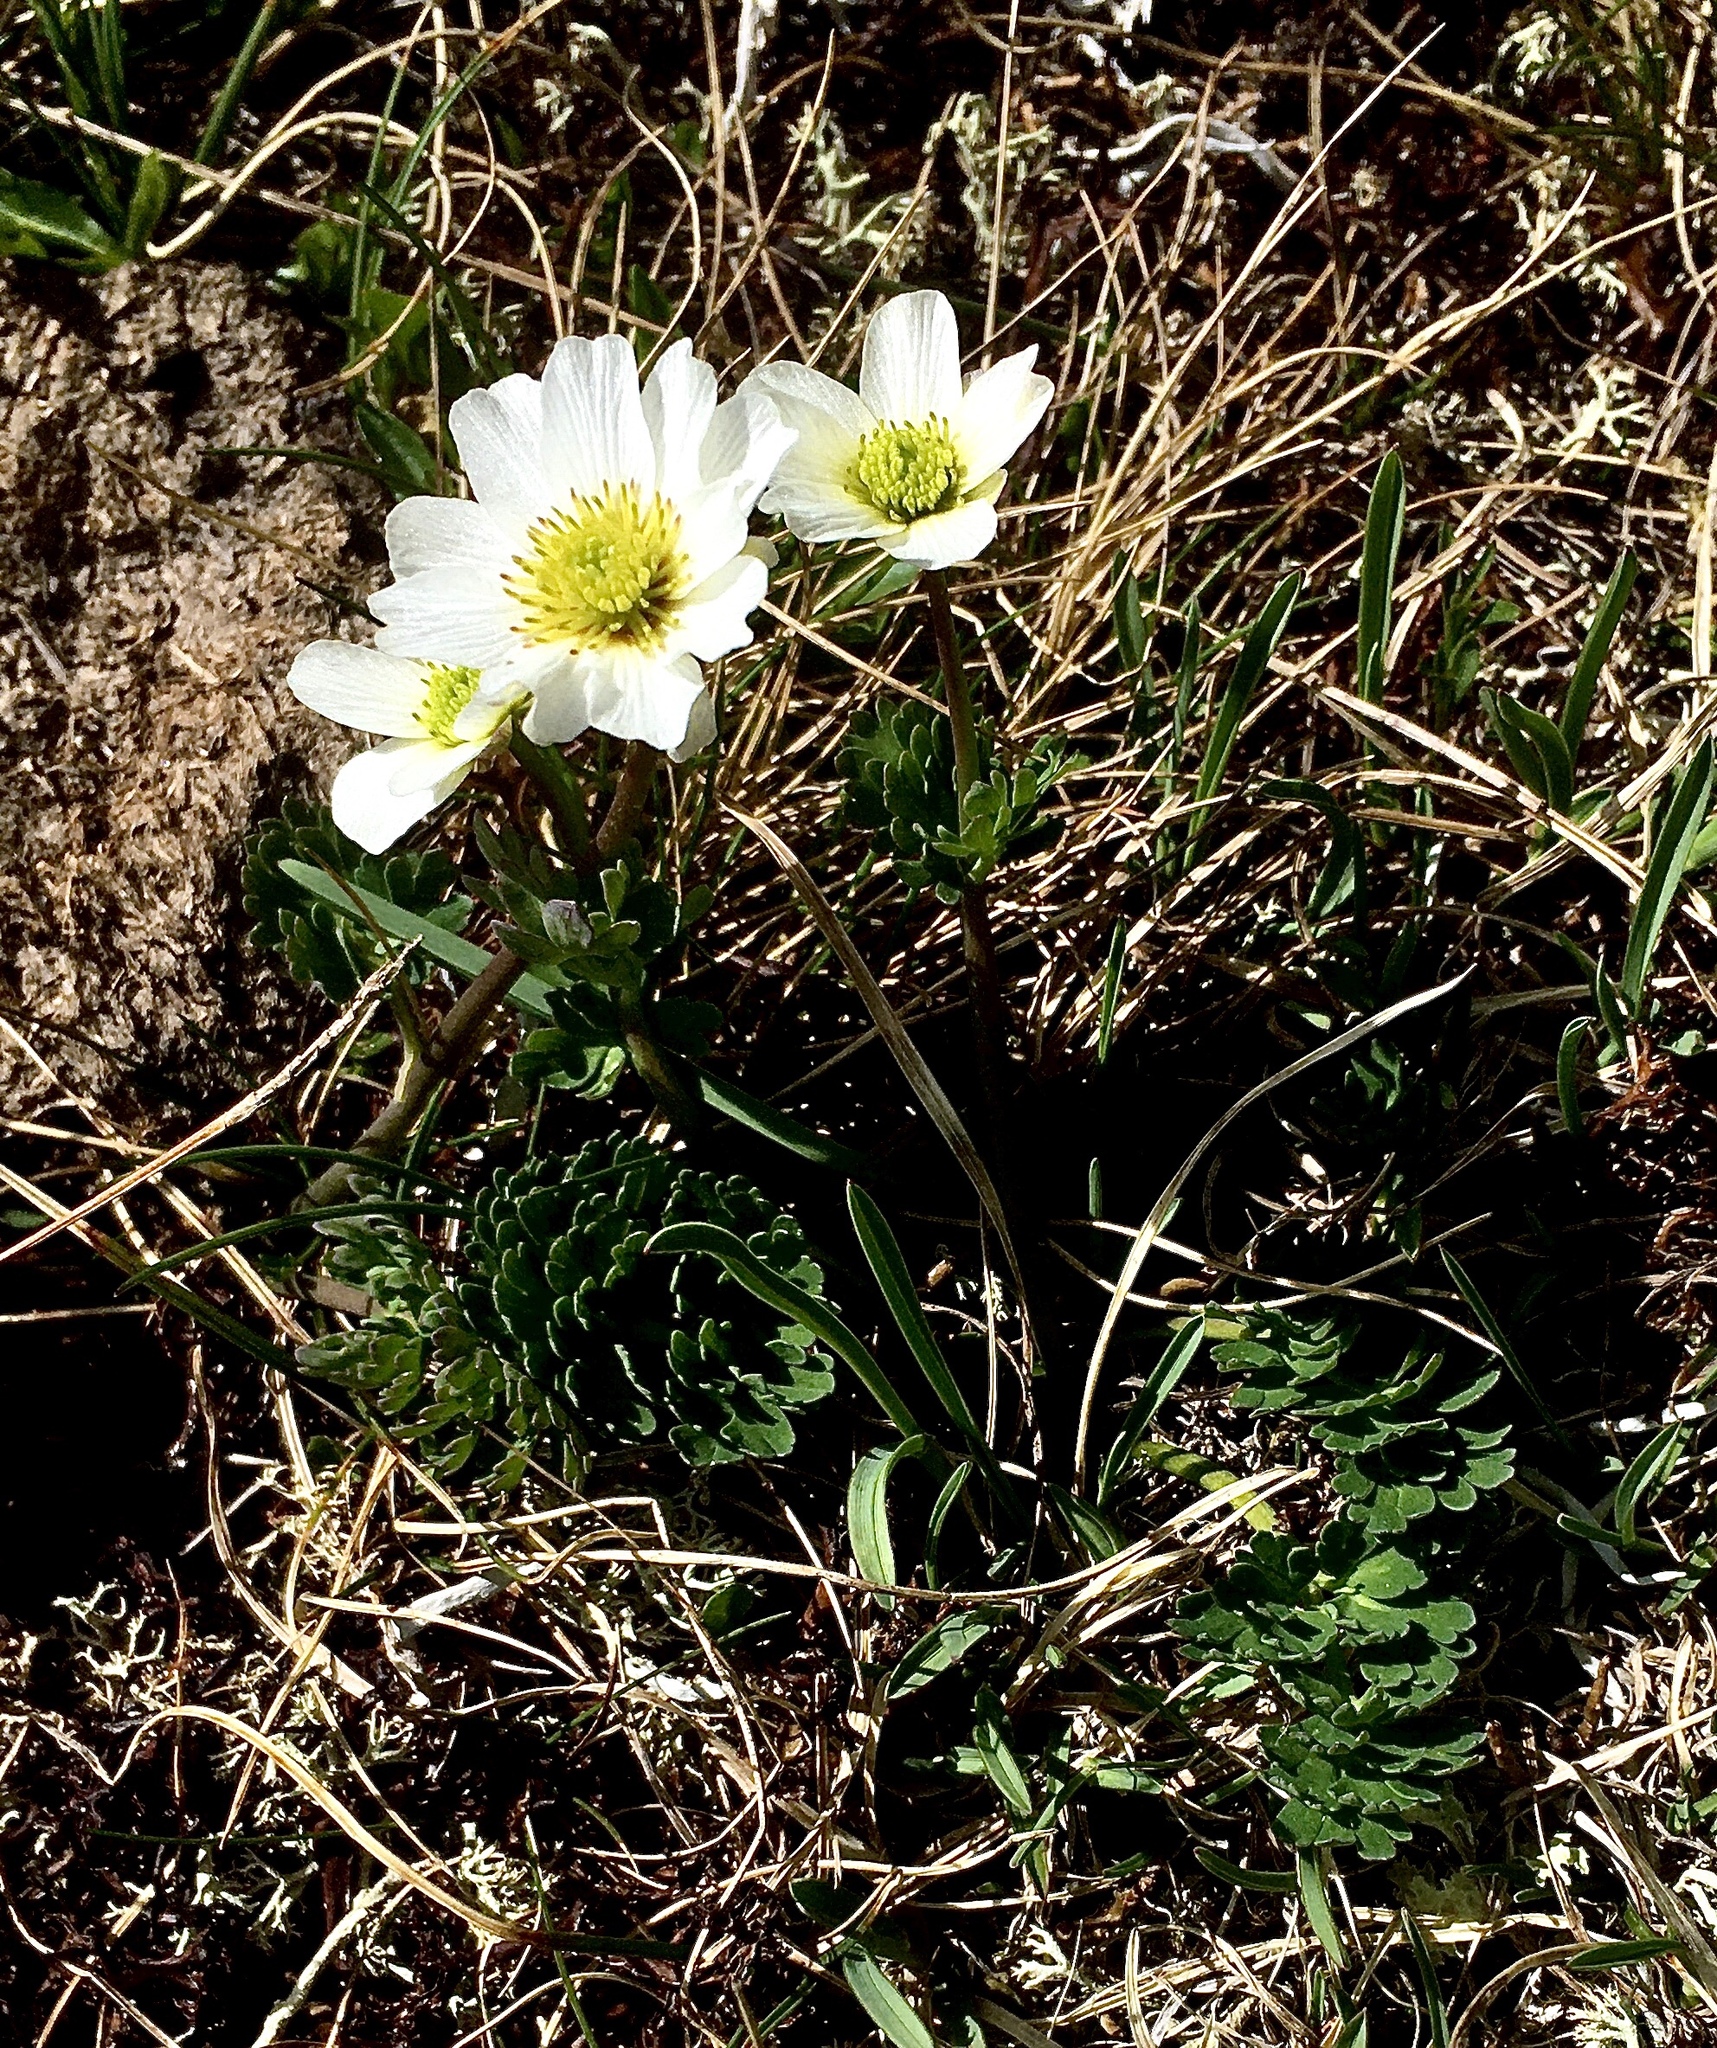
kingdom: Plantae
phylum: Tracheophyta
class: Magnoliopsida
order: Ranunculales
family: Ranunculaceae
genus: Callianthemum
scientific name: Callianthemum coriandrifolium
